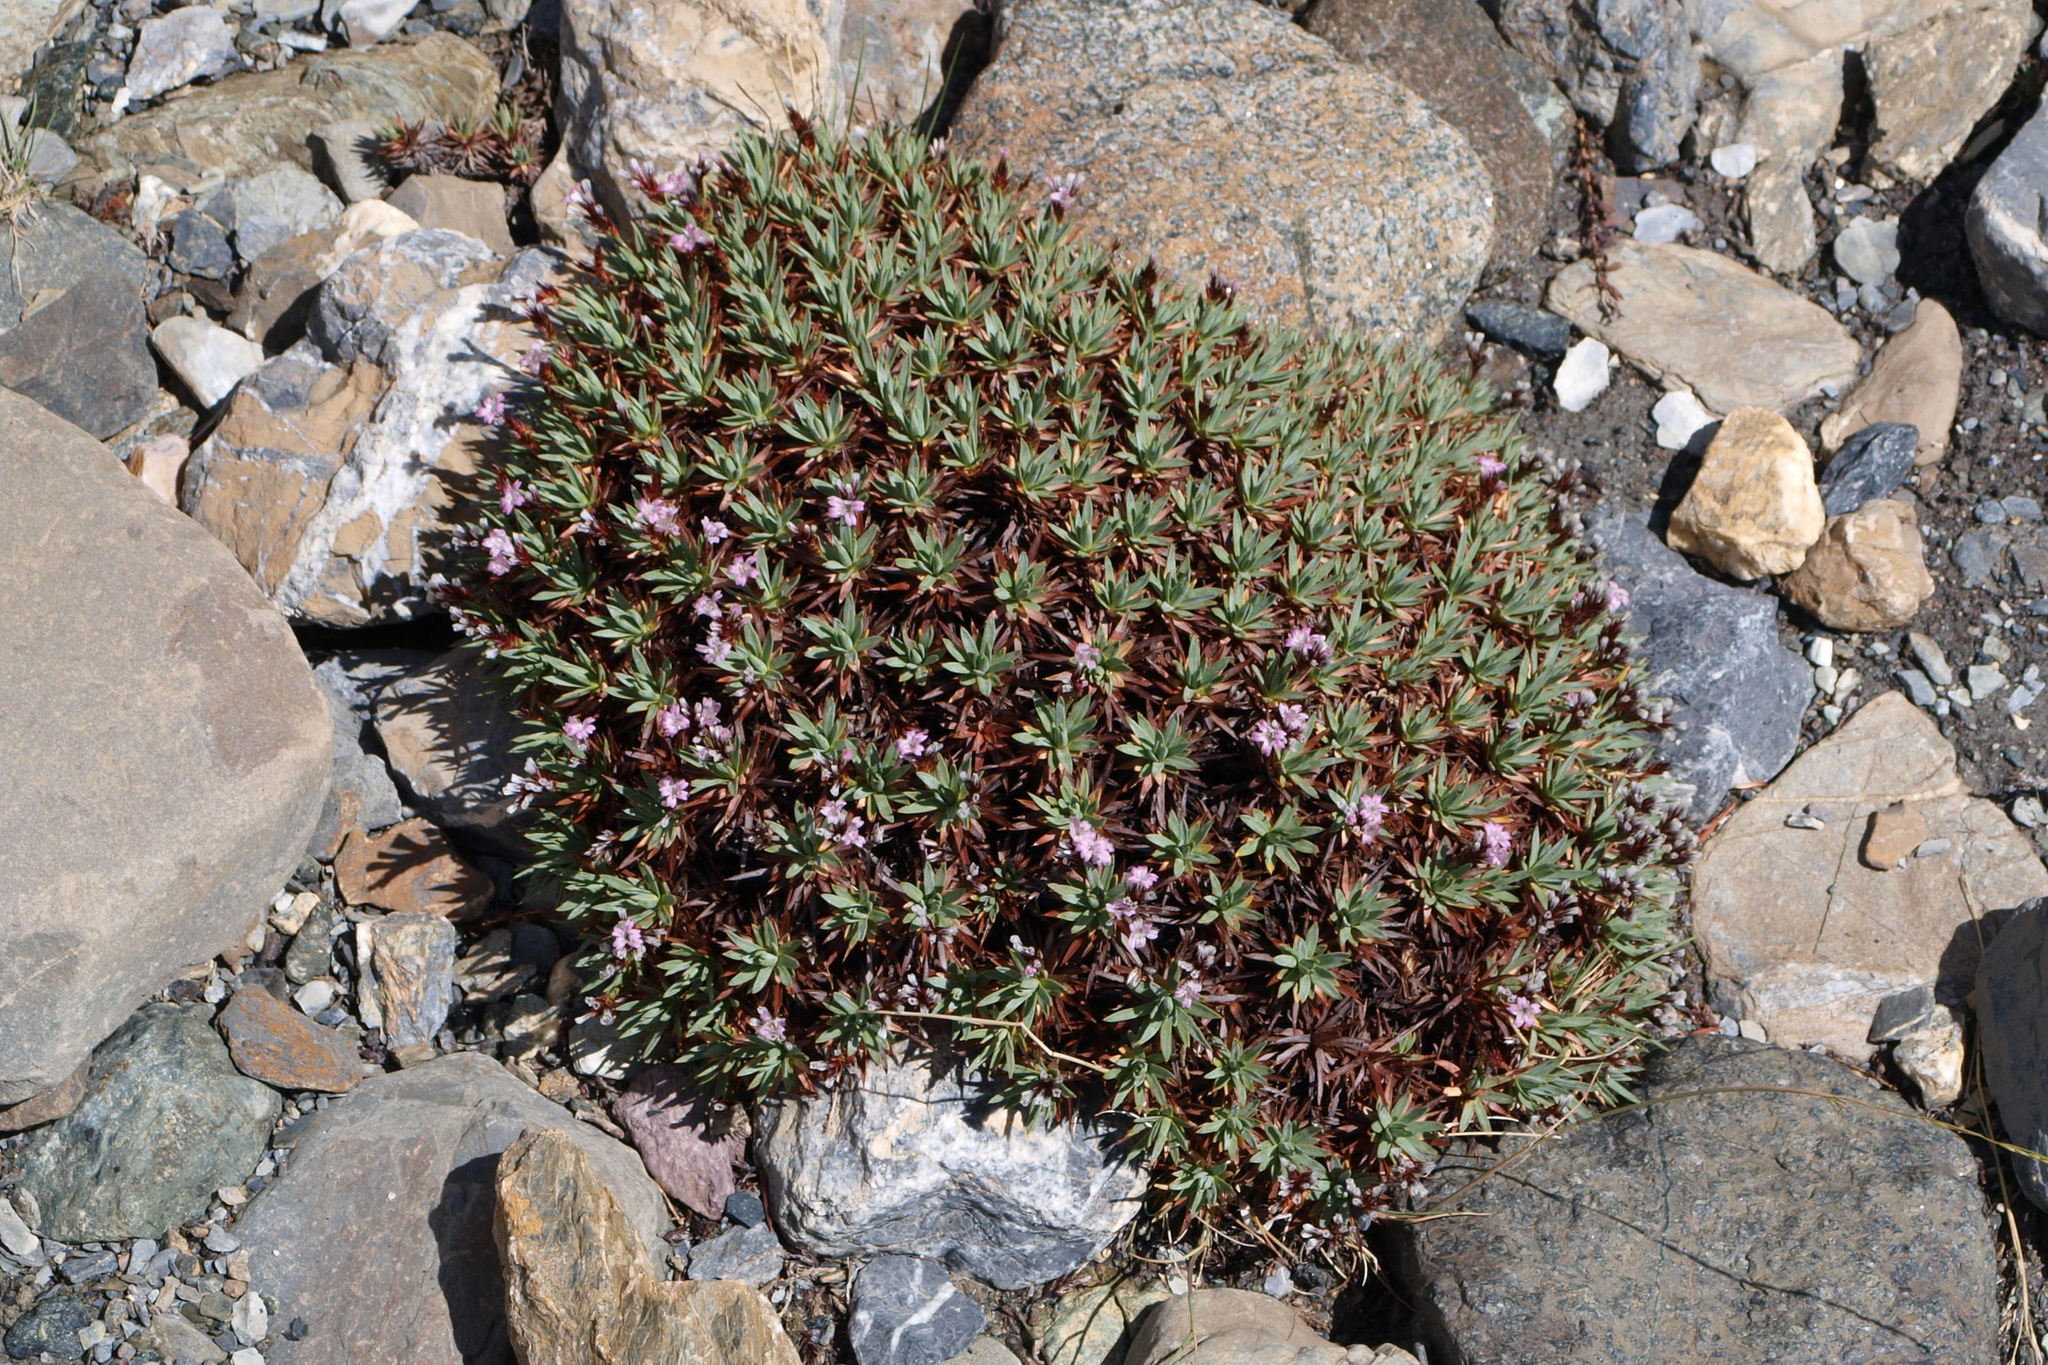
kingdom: Plantae
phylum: Tracheophyta
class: Magnoliopsida
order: Caryophyllales
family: Plumbaginaceae
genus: Acantholimon
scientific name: Acantholimon lycopodioides
